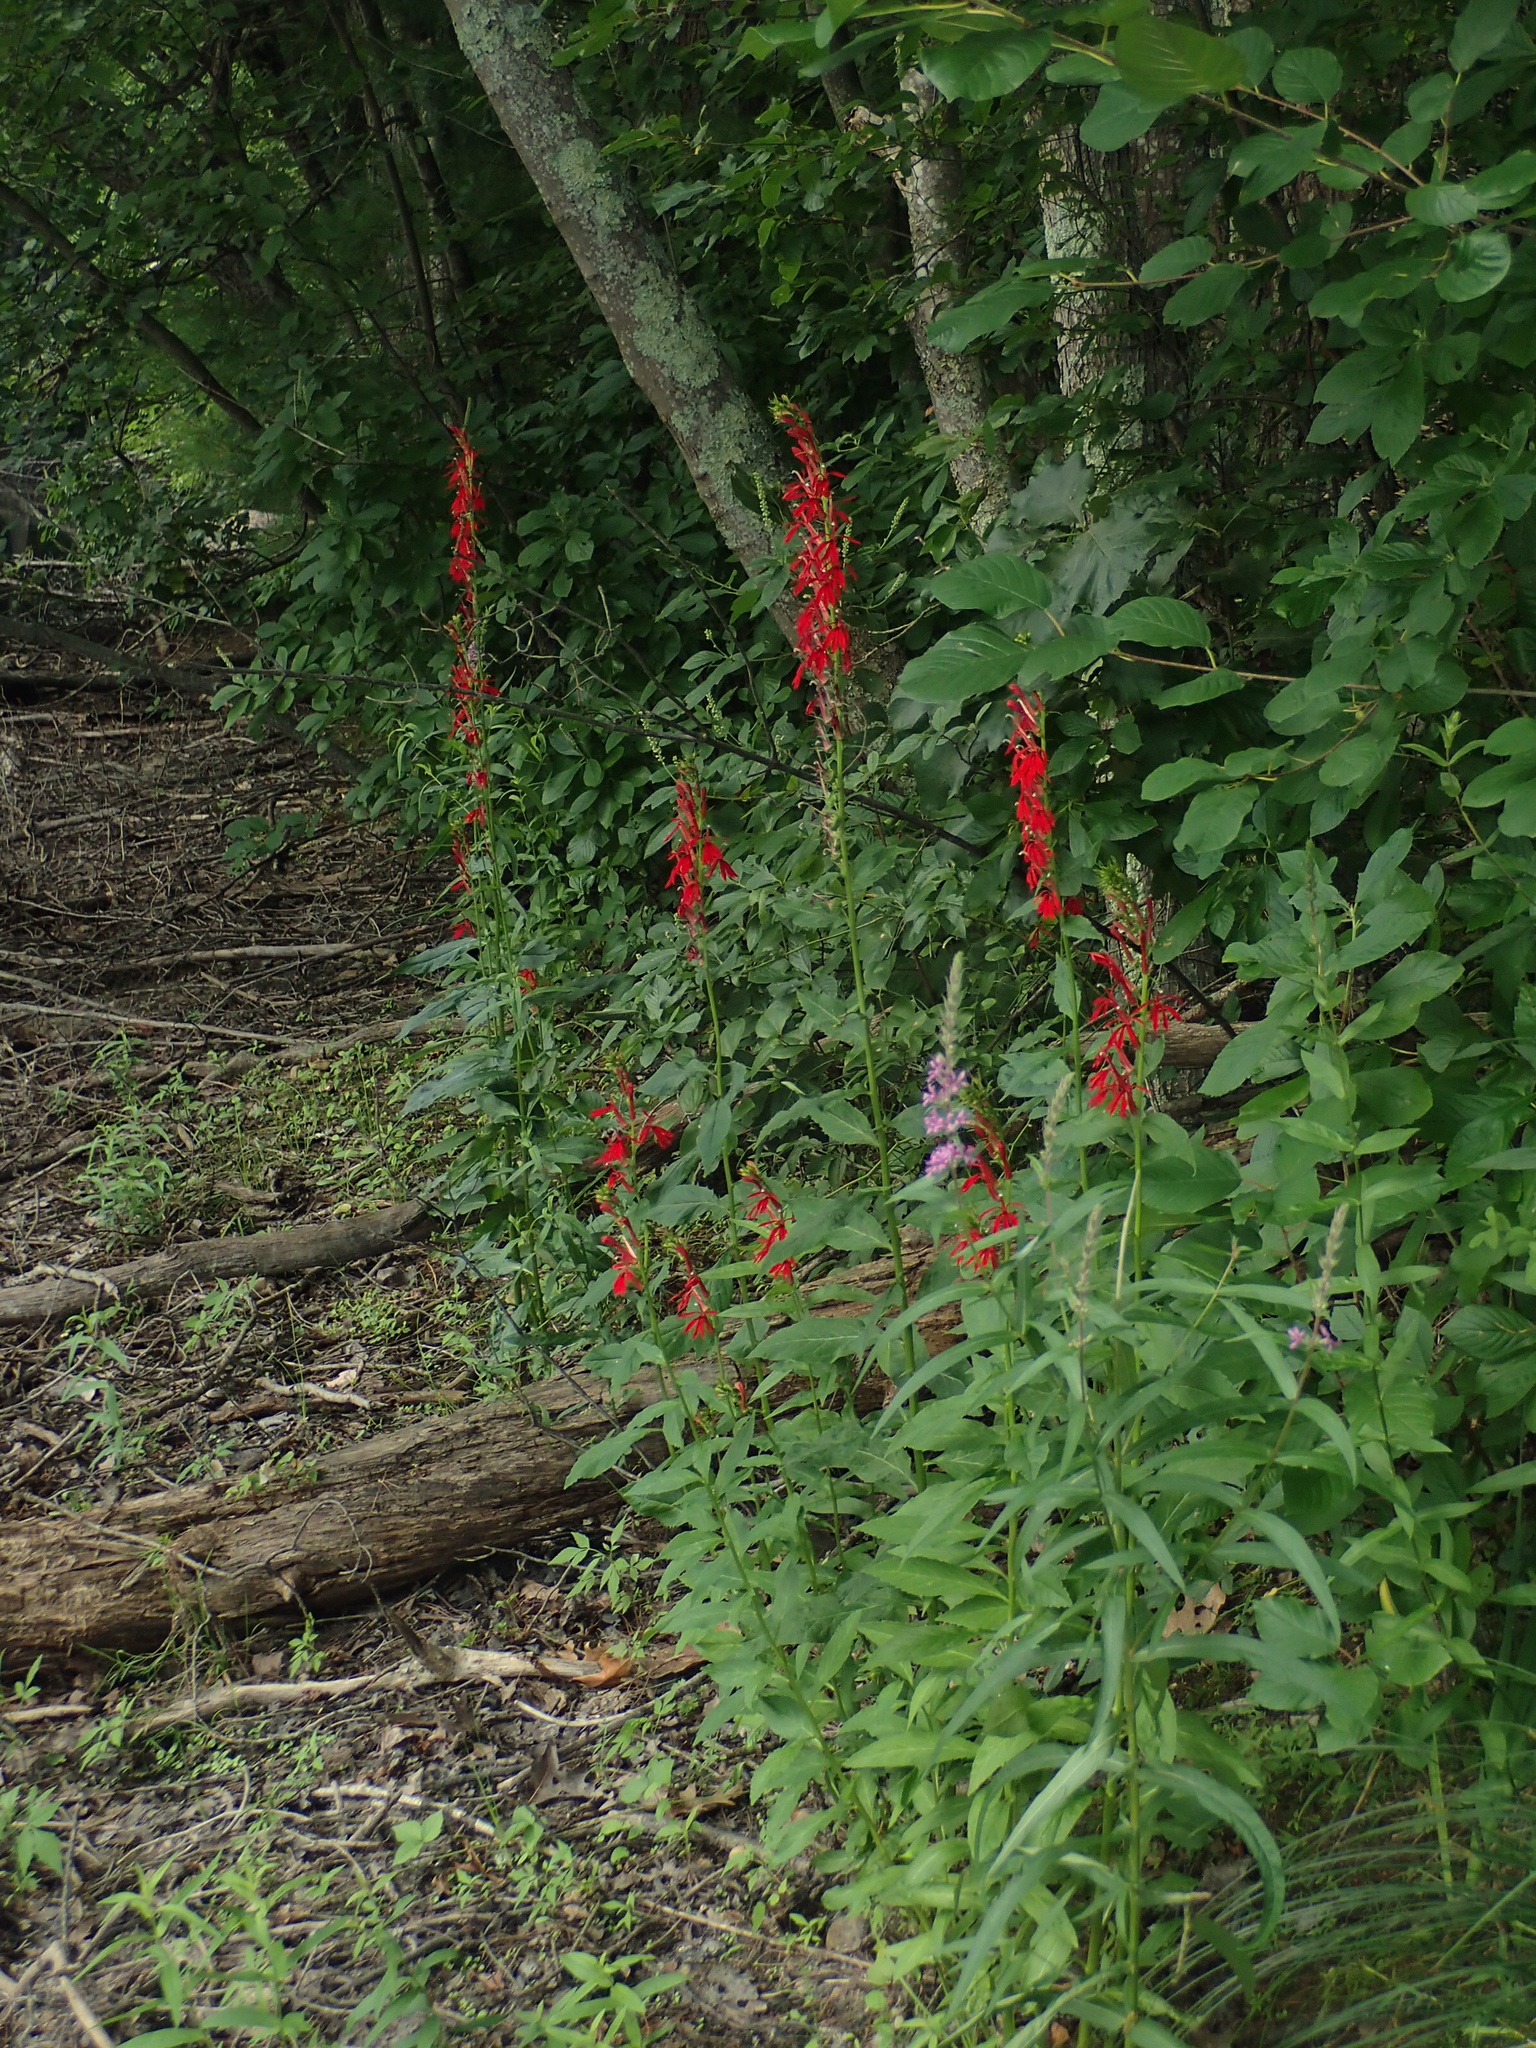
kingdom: Plantae
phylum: Tracheophyta
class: Magnoliopsida
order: Asterales
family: Campanulaceae
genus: Lobelia
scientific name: Lobelia cardinalis
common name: Cardinal flower
